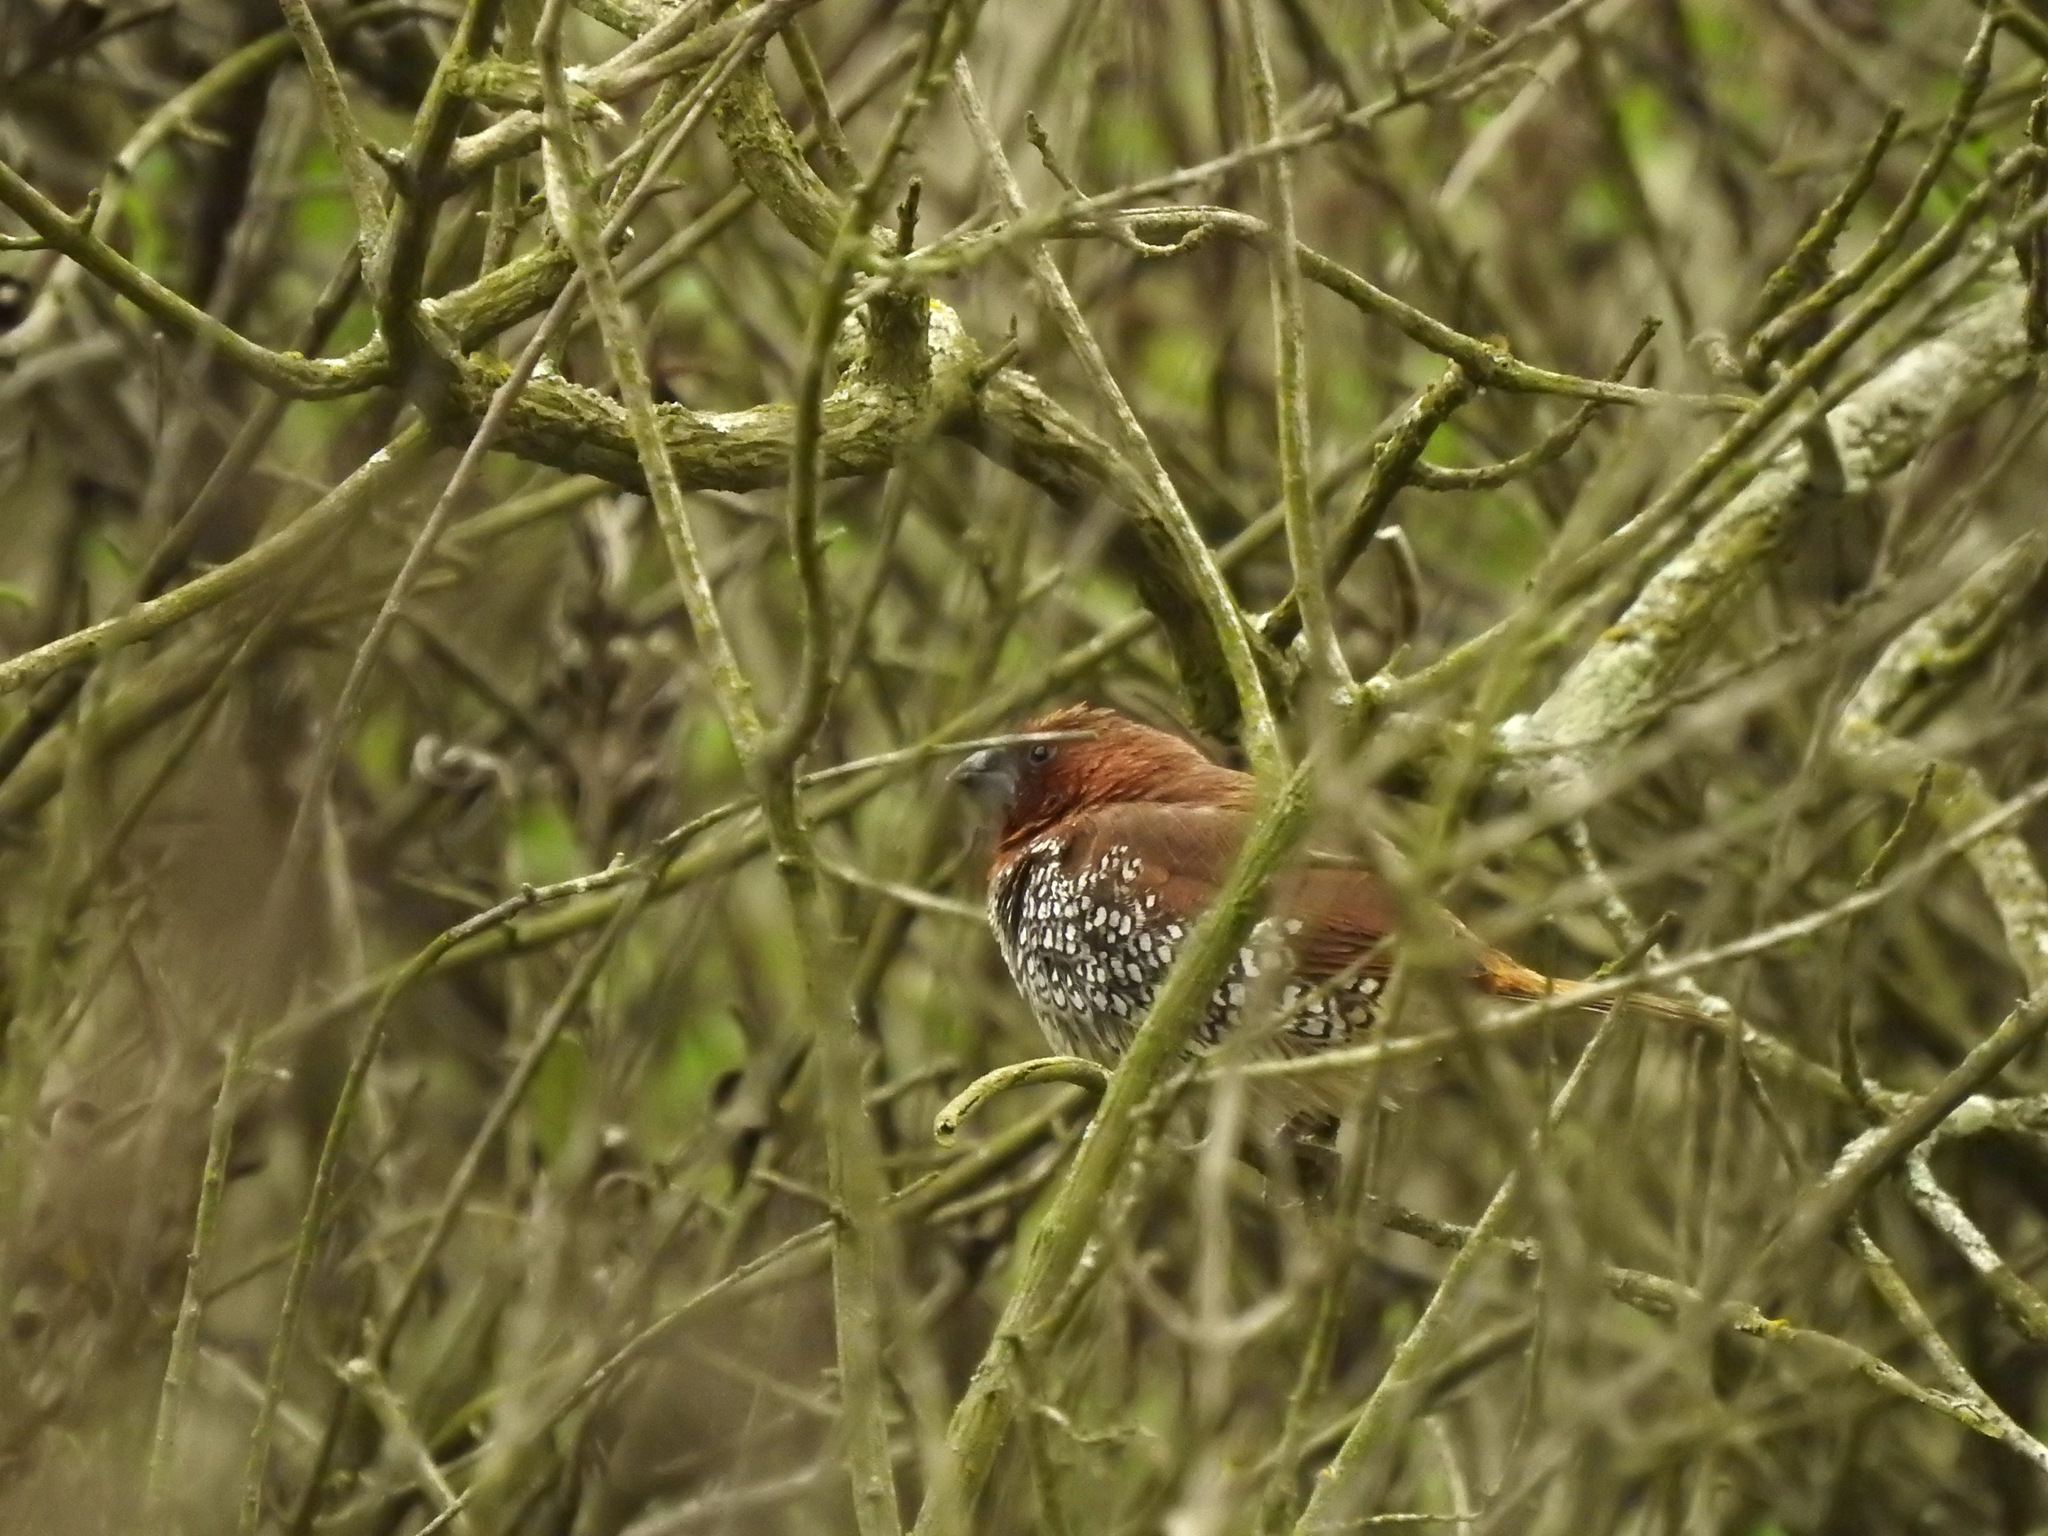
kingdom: Animalia
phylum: Chordata
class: Aves
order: Passeriformes
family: Estrildidae
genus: Lonchura
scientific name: Lonchura punctulata
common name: Scaly-breasted munia
